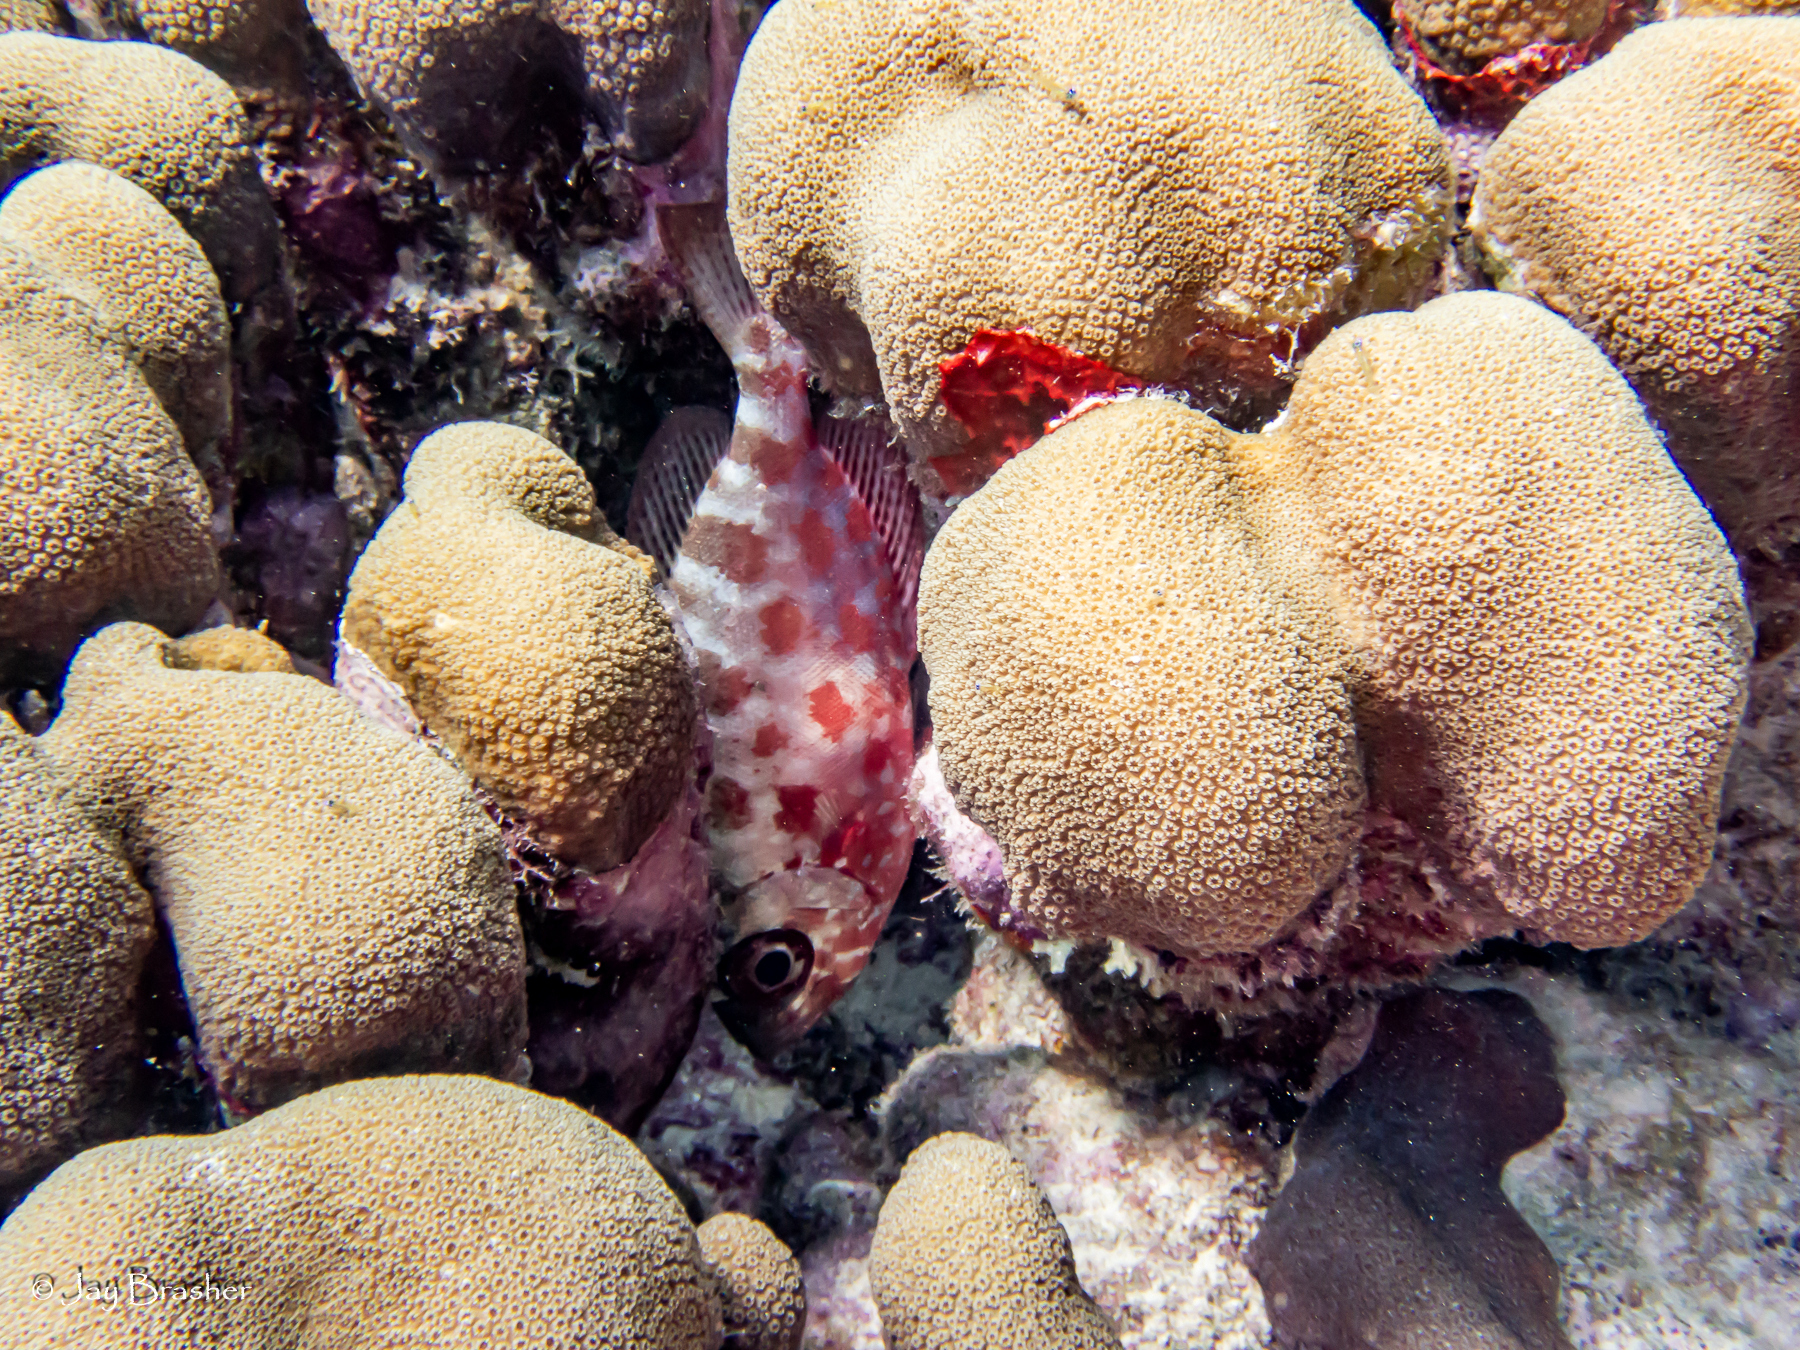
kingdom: Animalia
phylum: Chordata
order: Perciformes
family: Priacanthidae
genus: Heteropriacanthus
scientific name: Heteropriacanthus cruentatus
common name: Glasseye
